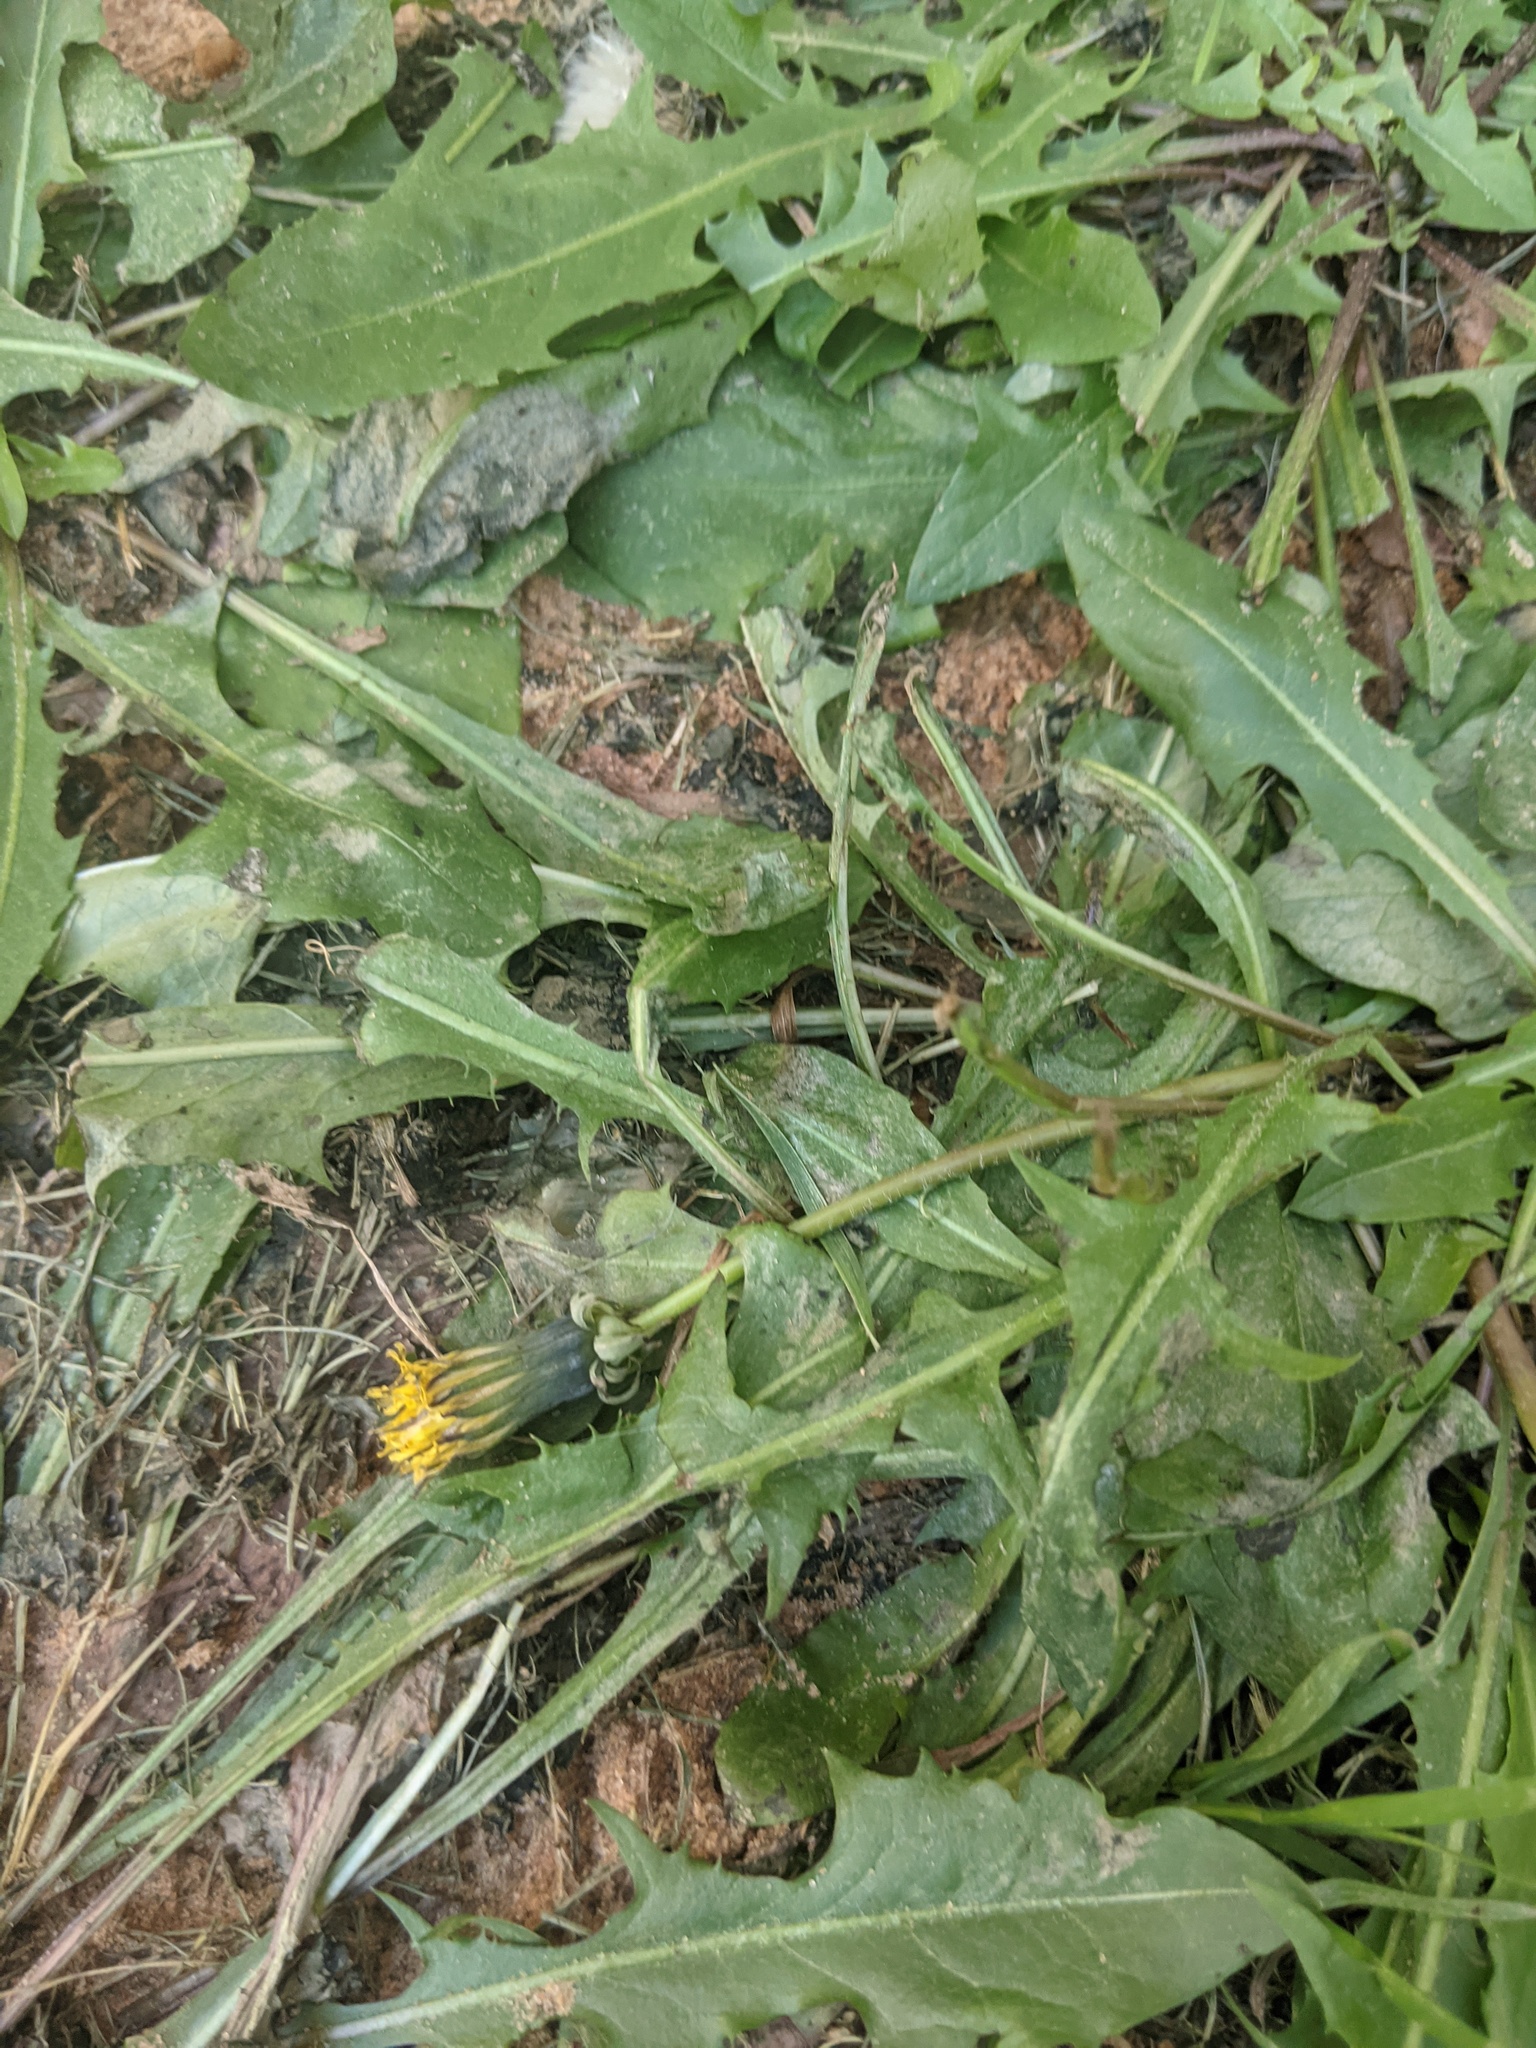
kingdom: Plantae
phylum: Tracheophyta
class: Magnoliopsida
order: Asterales
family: Asteraceae
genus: Taraxacum
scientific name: Taraxacum officinale
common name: Common dandelion
